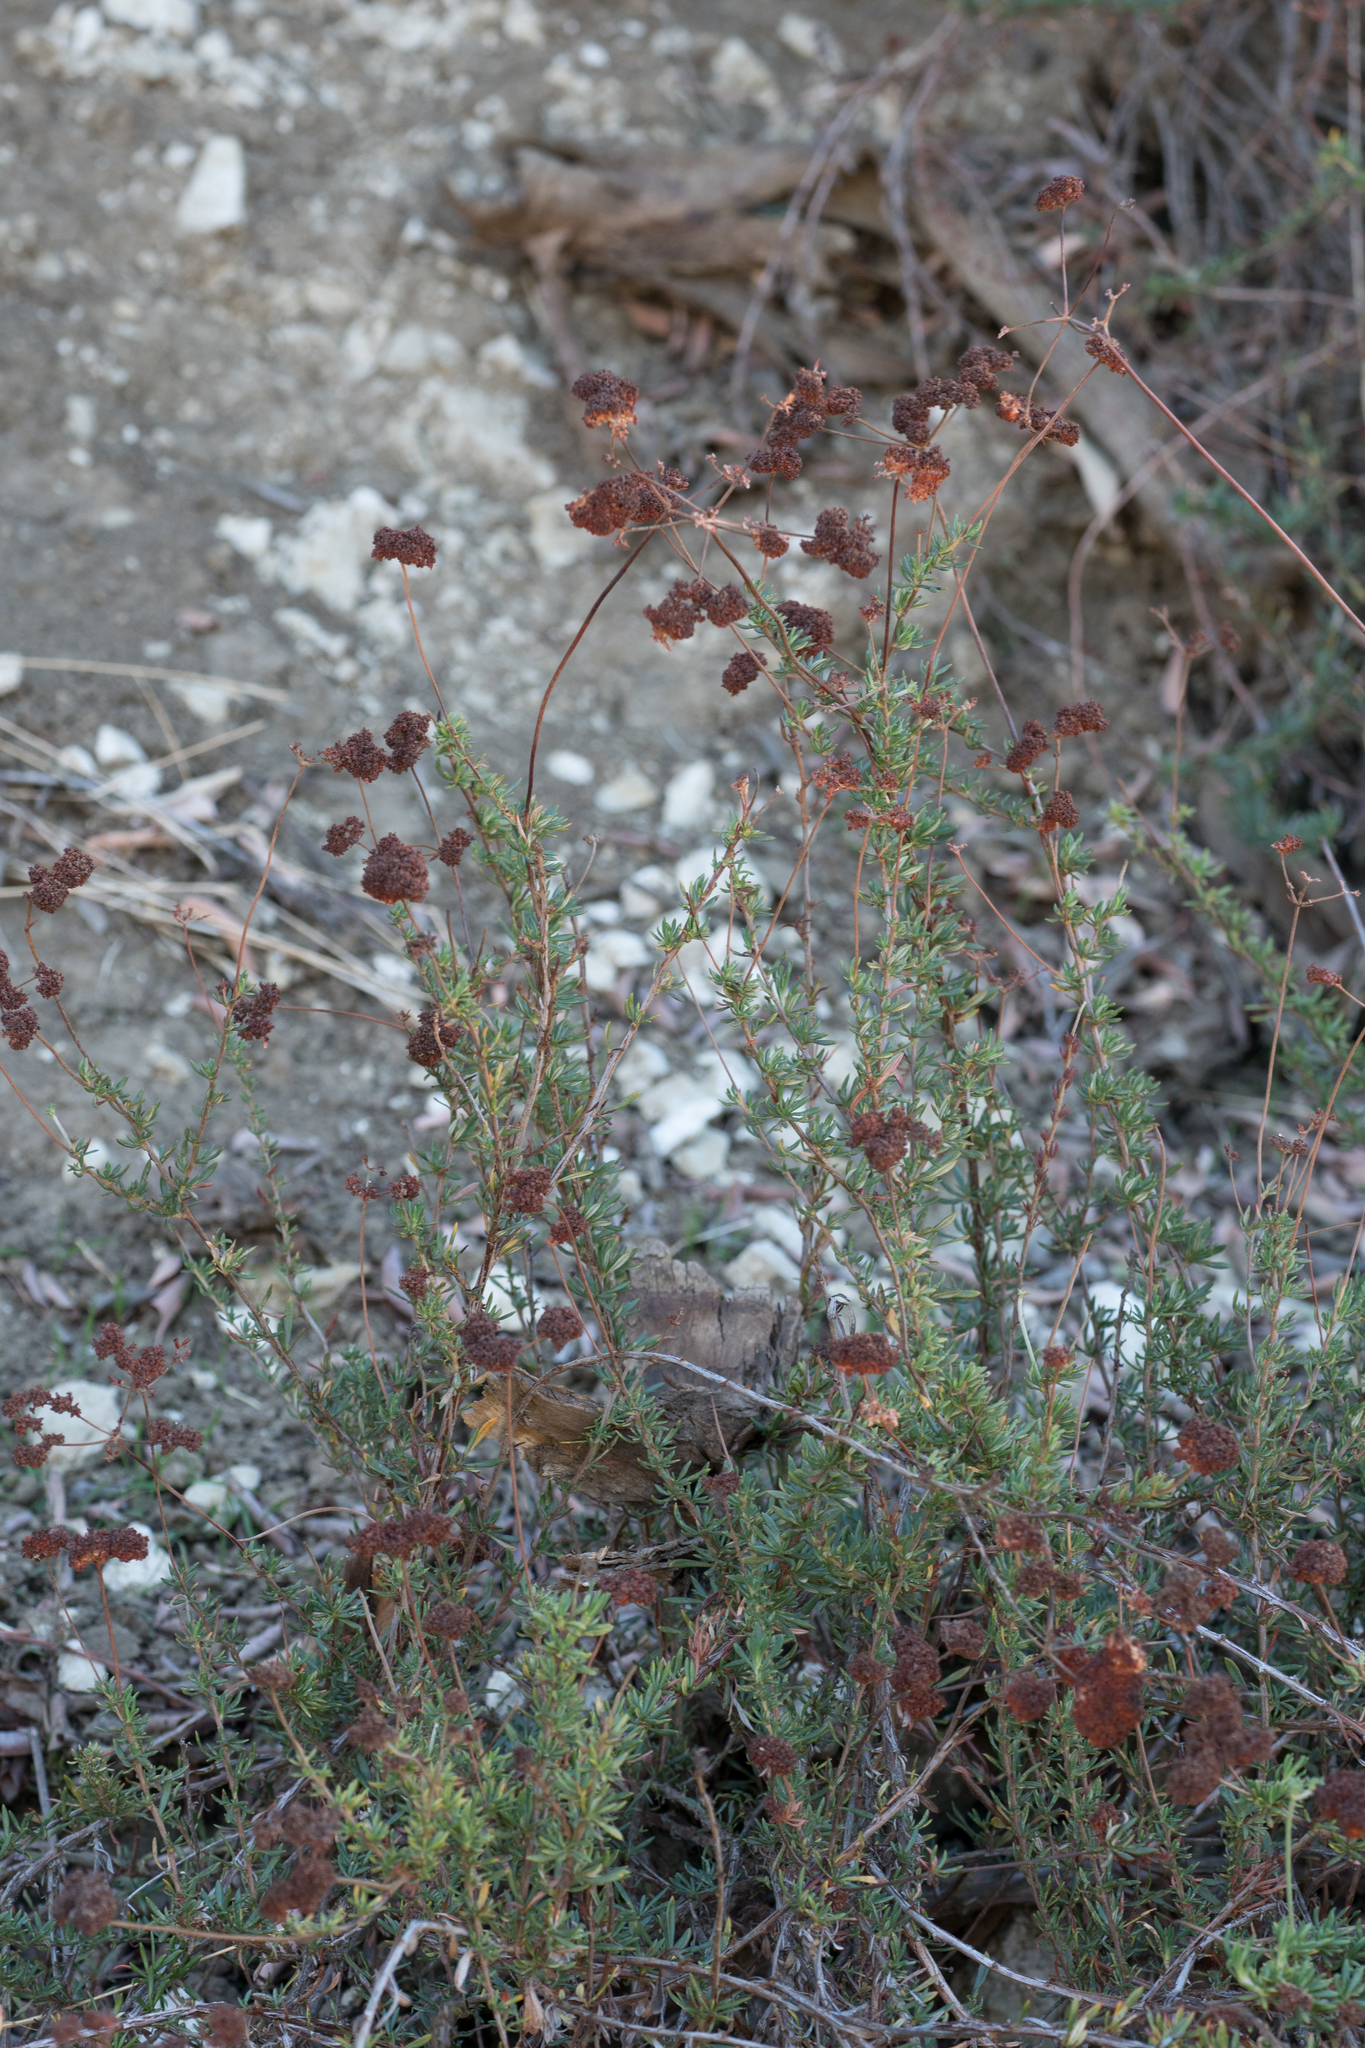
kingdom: Plantae
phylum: Tracheophyta
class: Magnoliopsida
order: Caryophyllales
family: Polygonaceae
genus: Eriogonum
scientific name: Eriogonum fasciculatum
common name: California wild buckwheat
